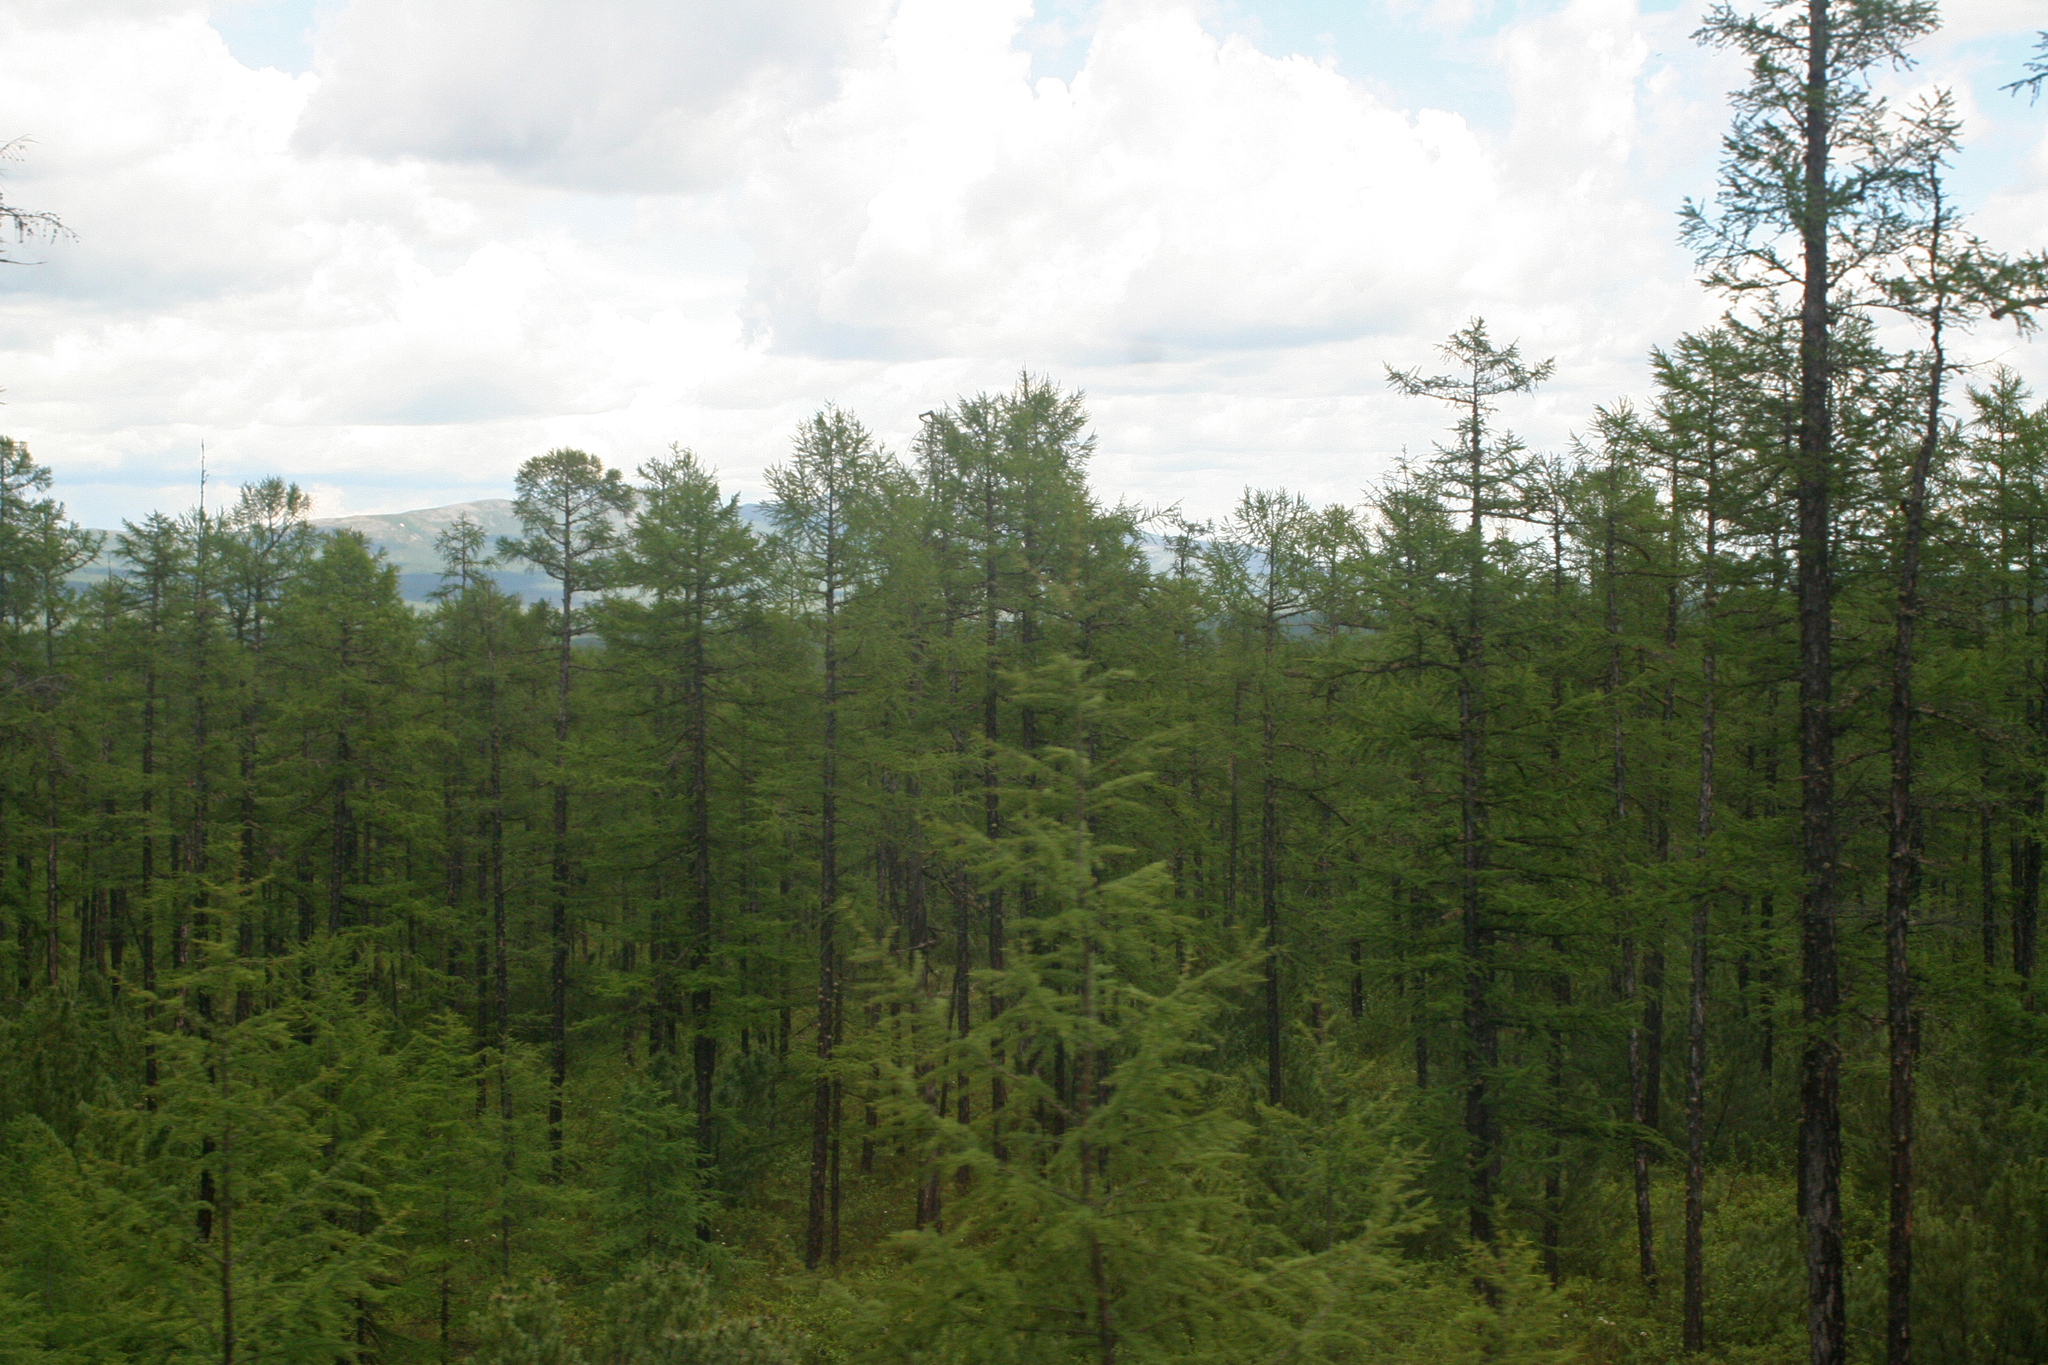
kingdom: Plantae
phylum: Tracheophyta
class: Pinopsida
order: Pinales
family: Pinaceae
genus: Larix
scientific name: Larix gmelinii
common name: Dahurian larch
